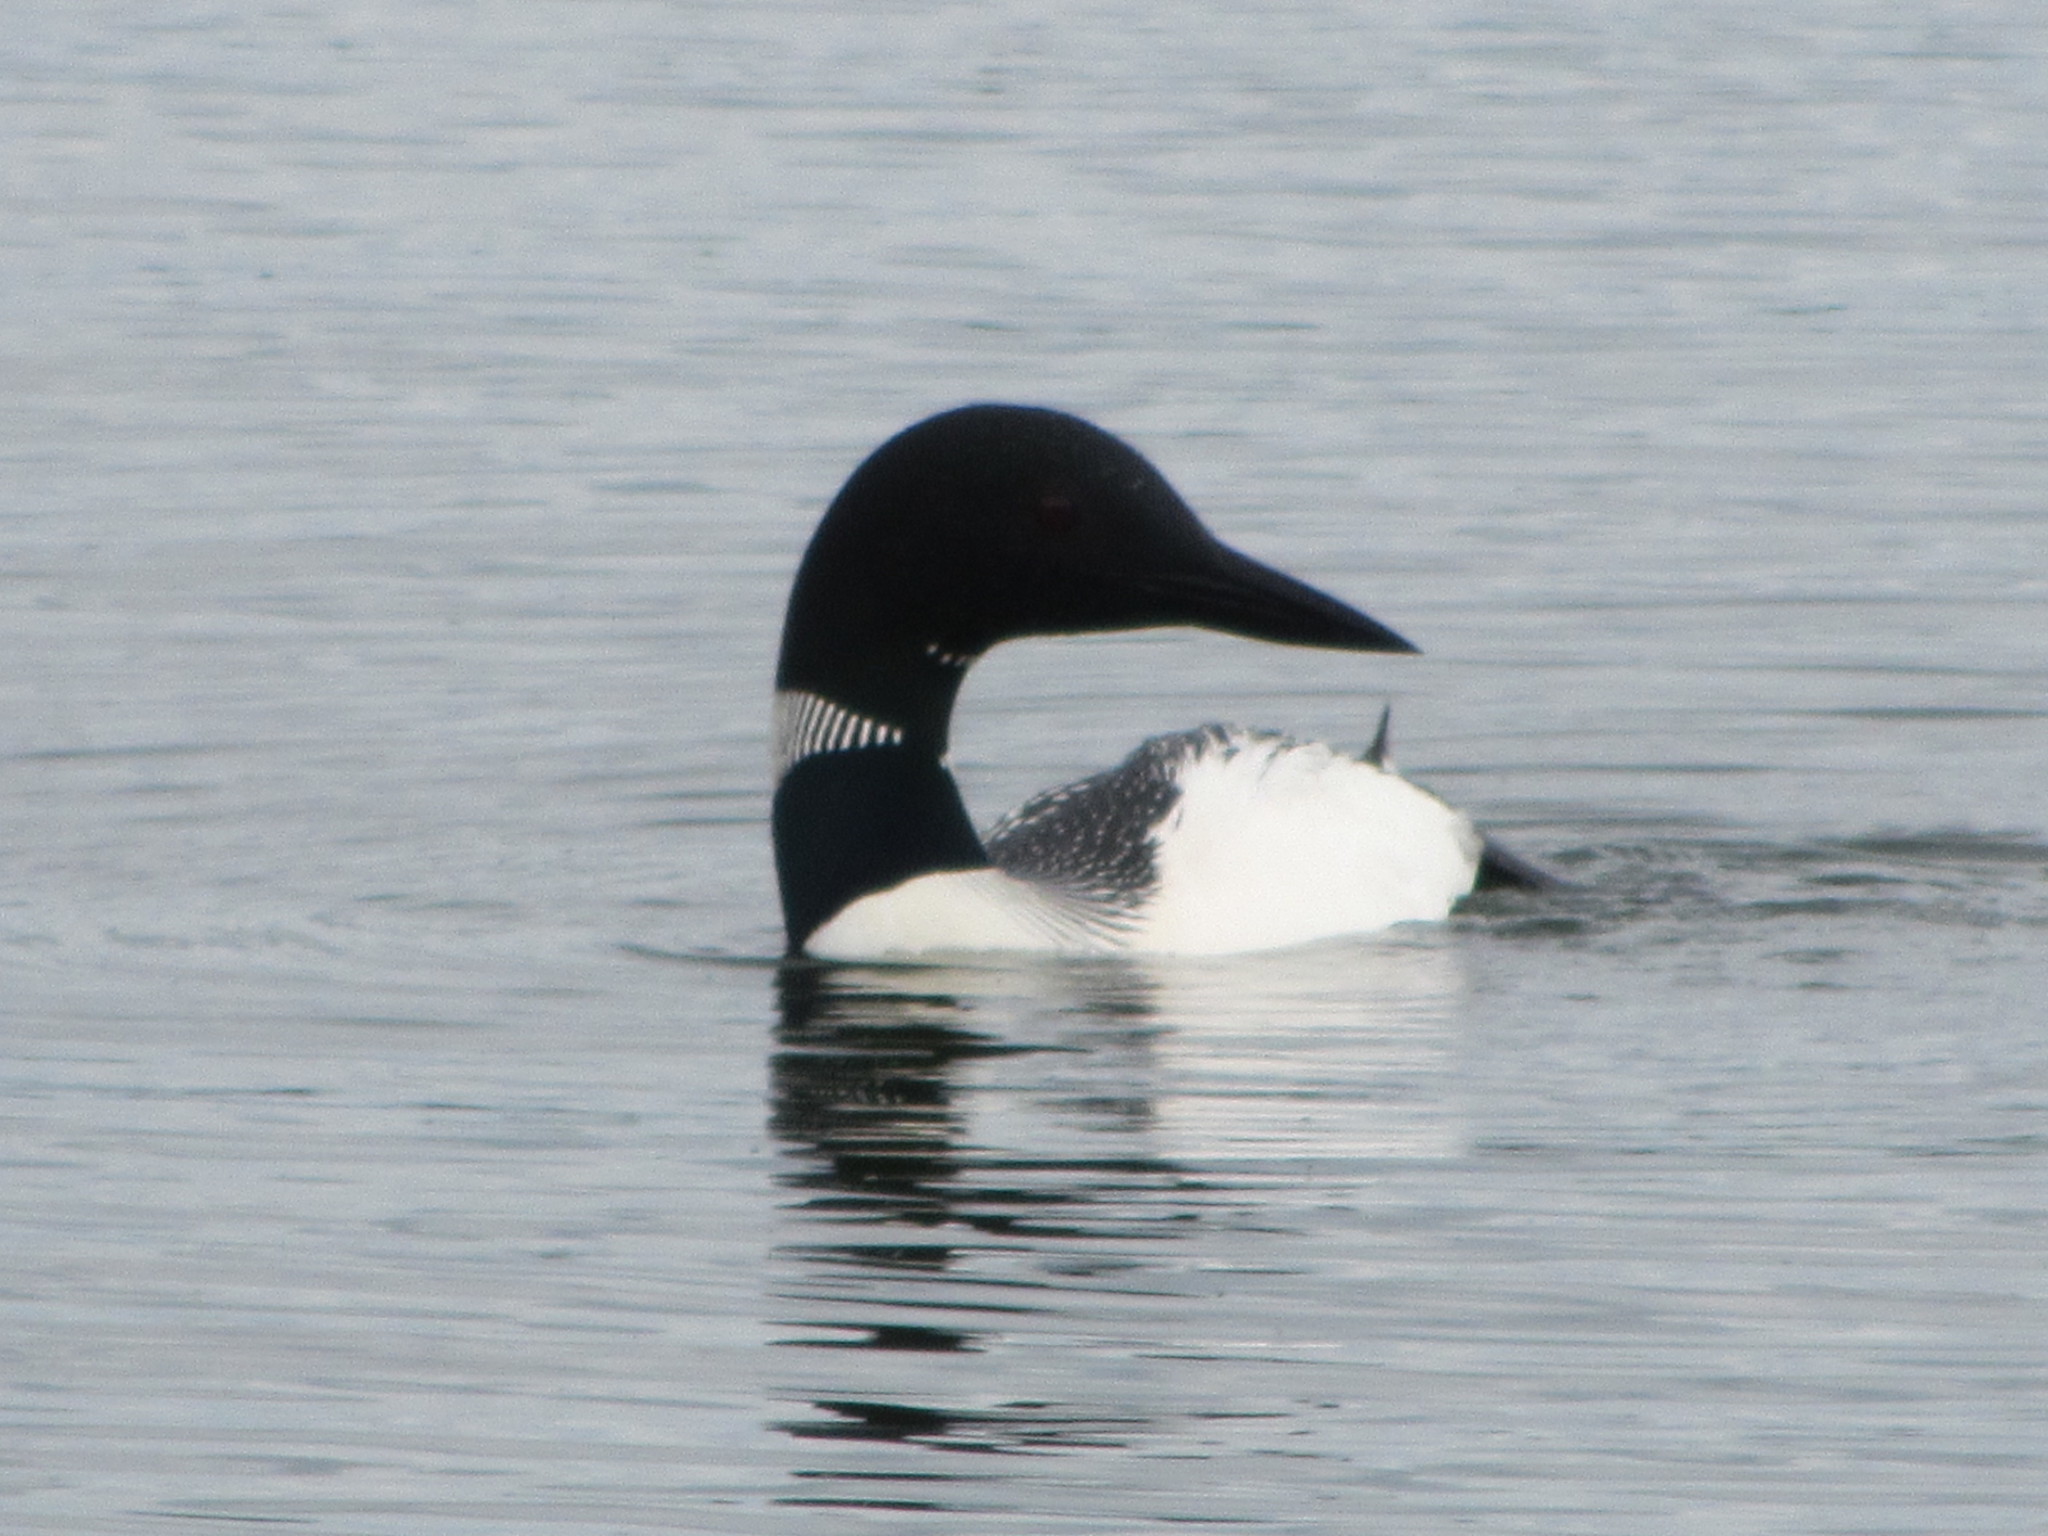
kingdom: Animalia
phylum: Chordata
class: Aves
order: Gaviiformes
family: Gaviidae
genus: Gavia
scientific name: Gavia immer
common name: Common loon
